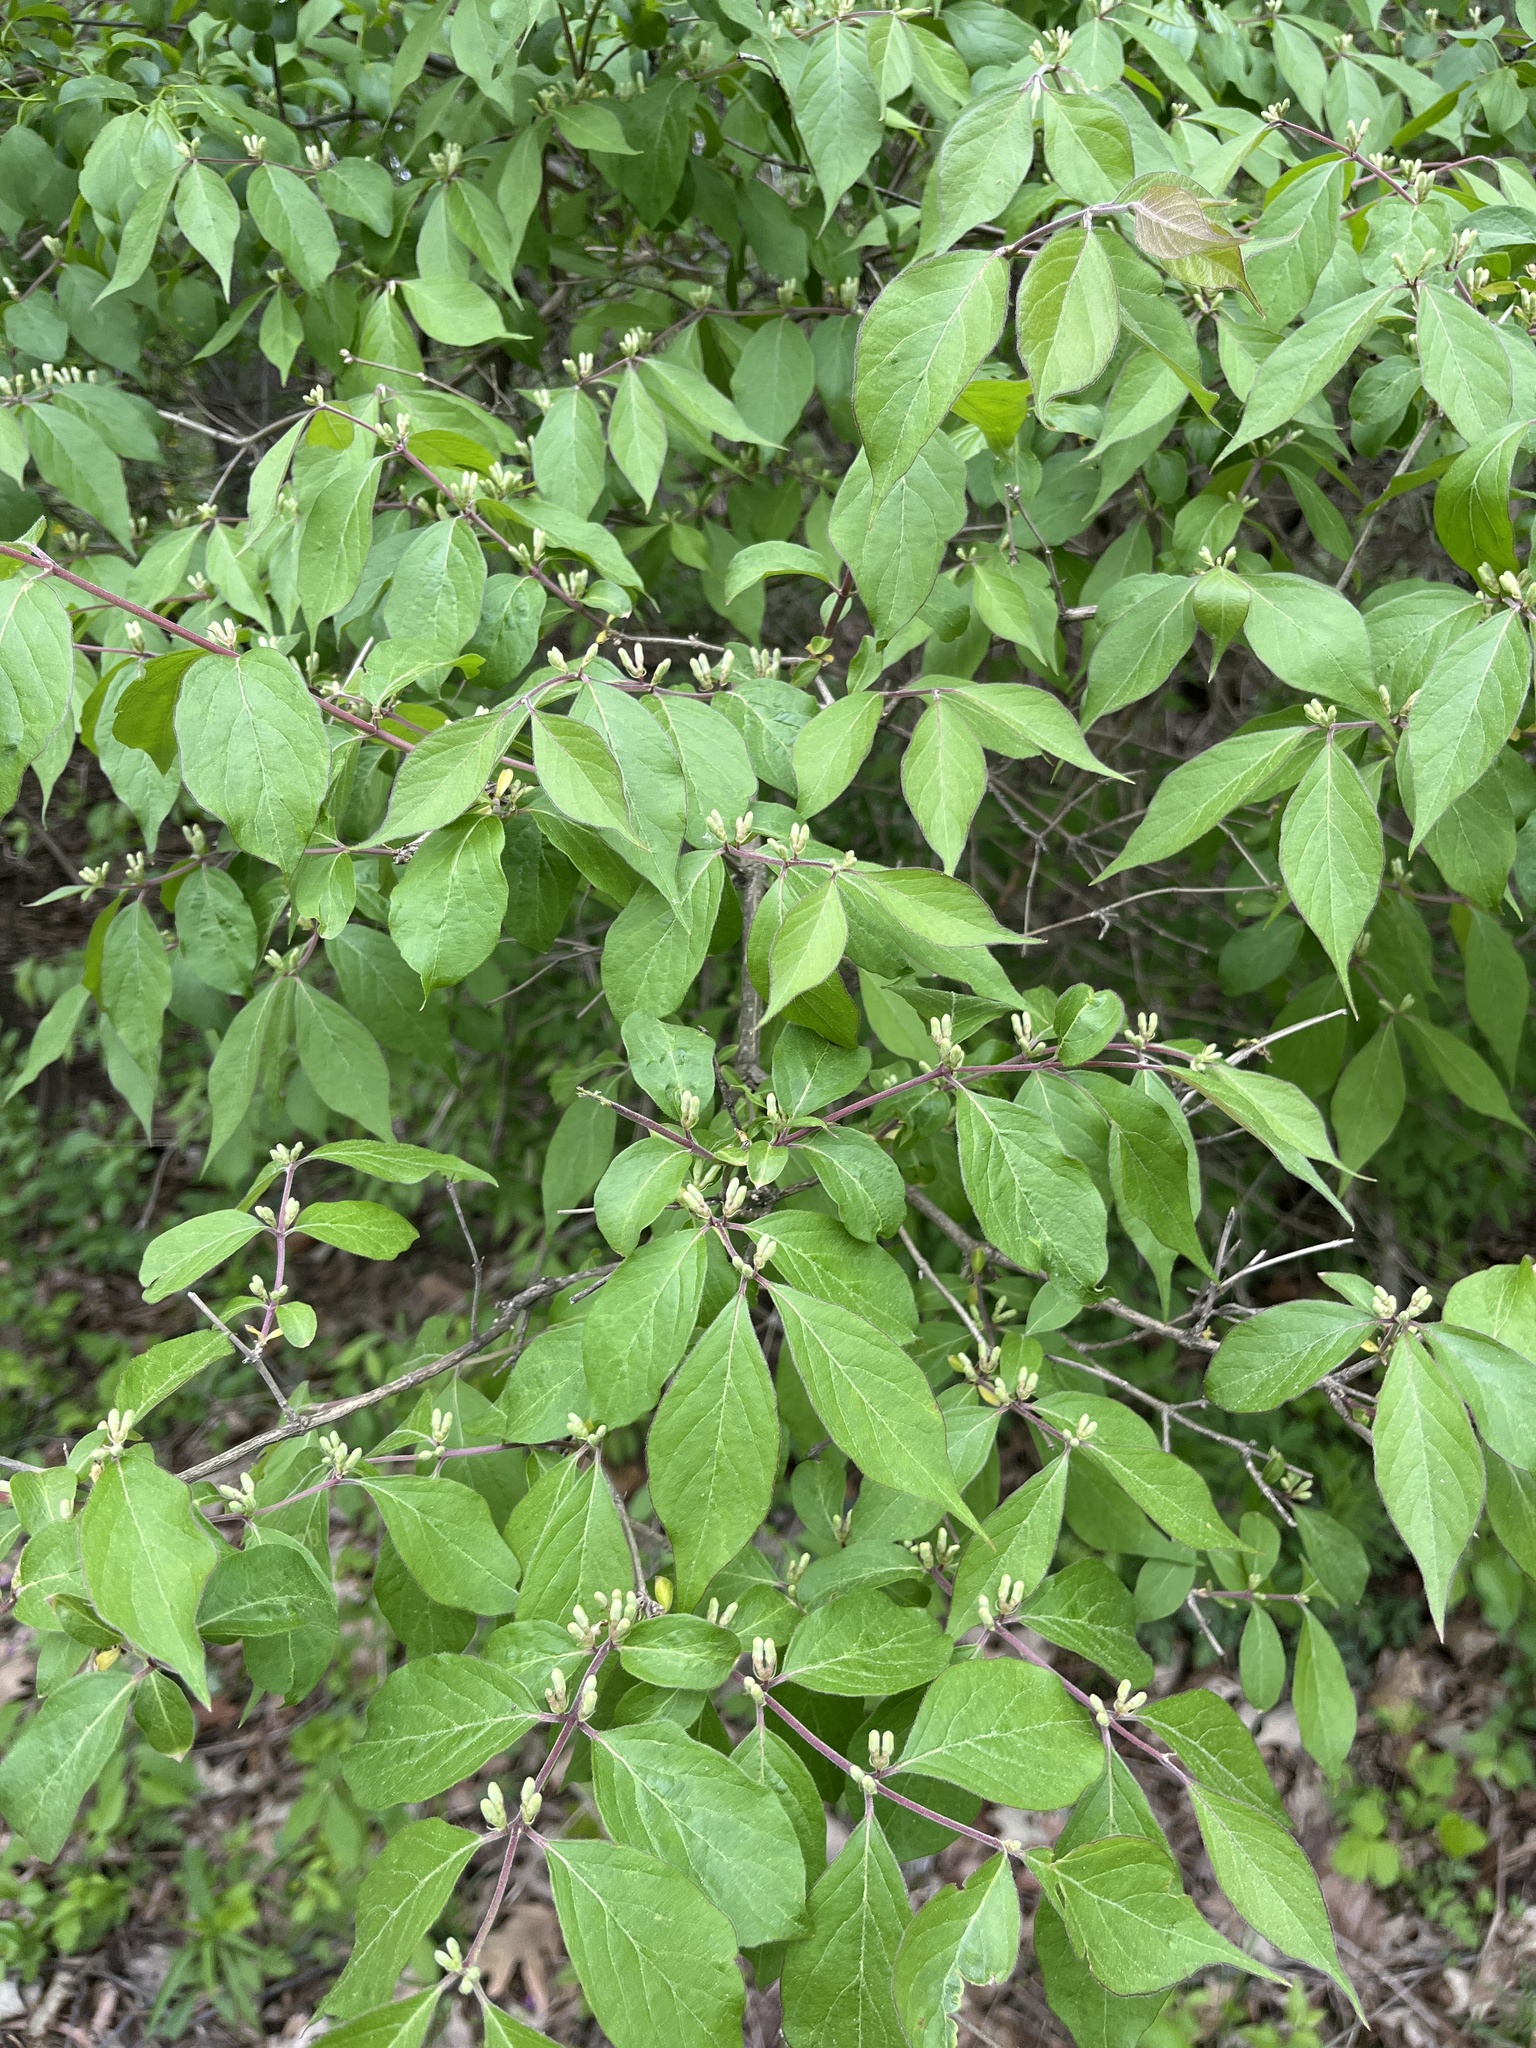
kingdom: Plantae
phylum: Tracheophyta
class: Magnoliopsida
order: Dipsacales
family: Caprifoliaceae
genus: Lonicera
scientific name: Lonicera maackii
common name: Amur honeysuckle
